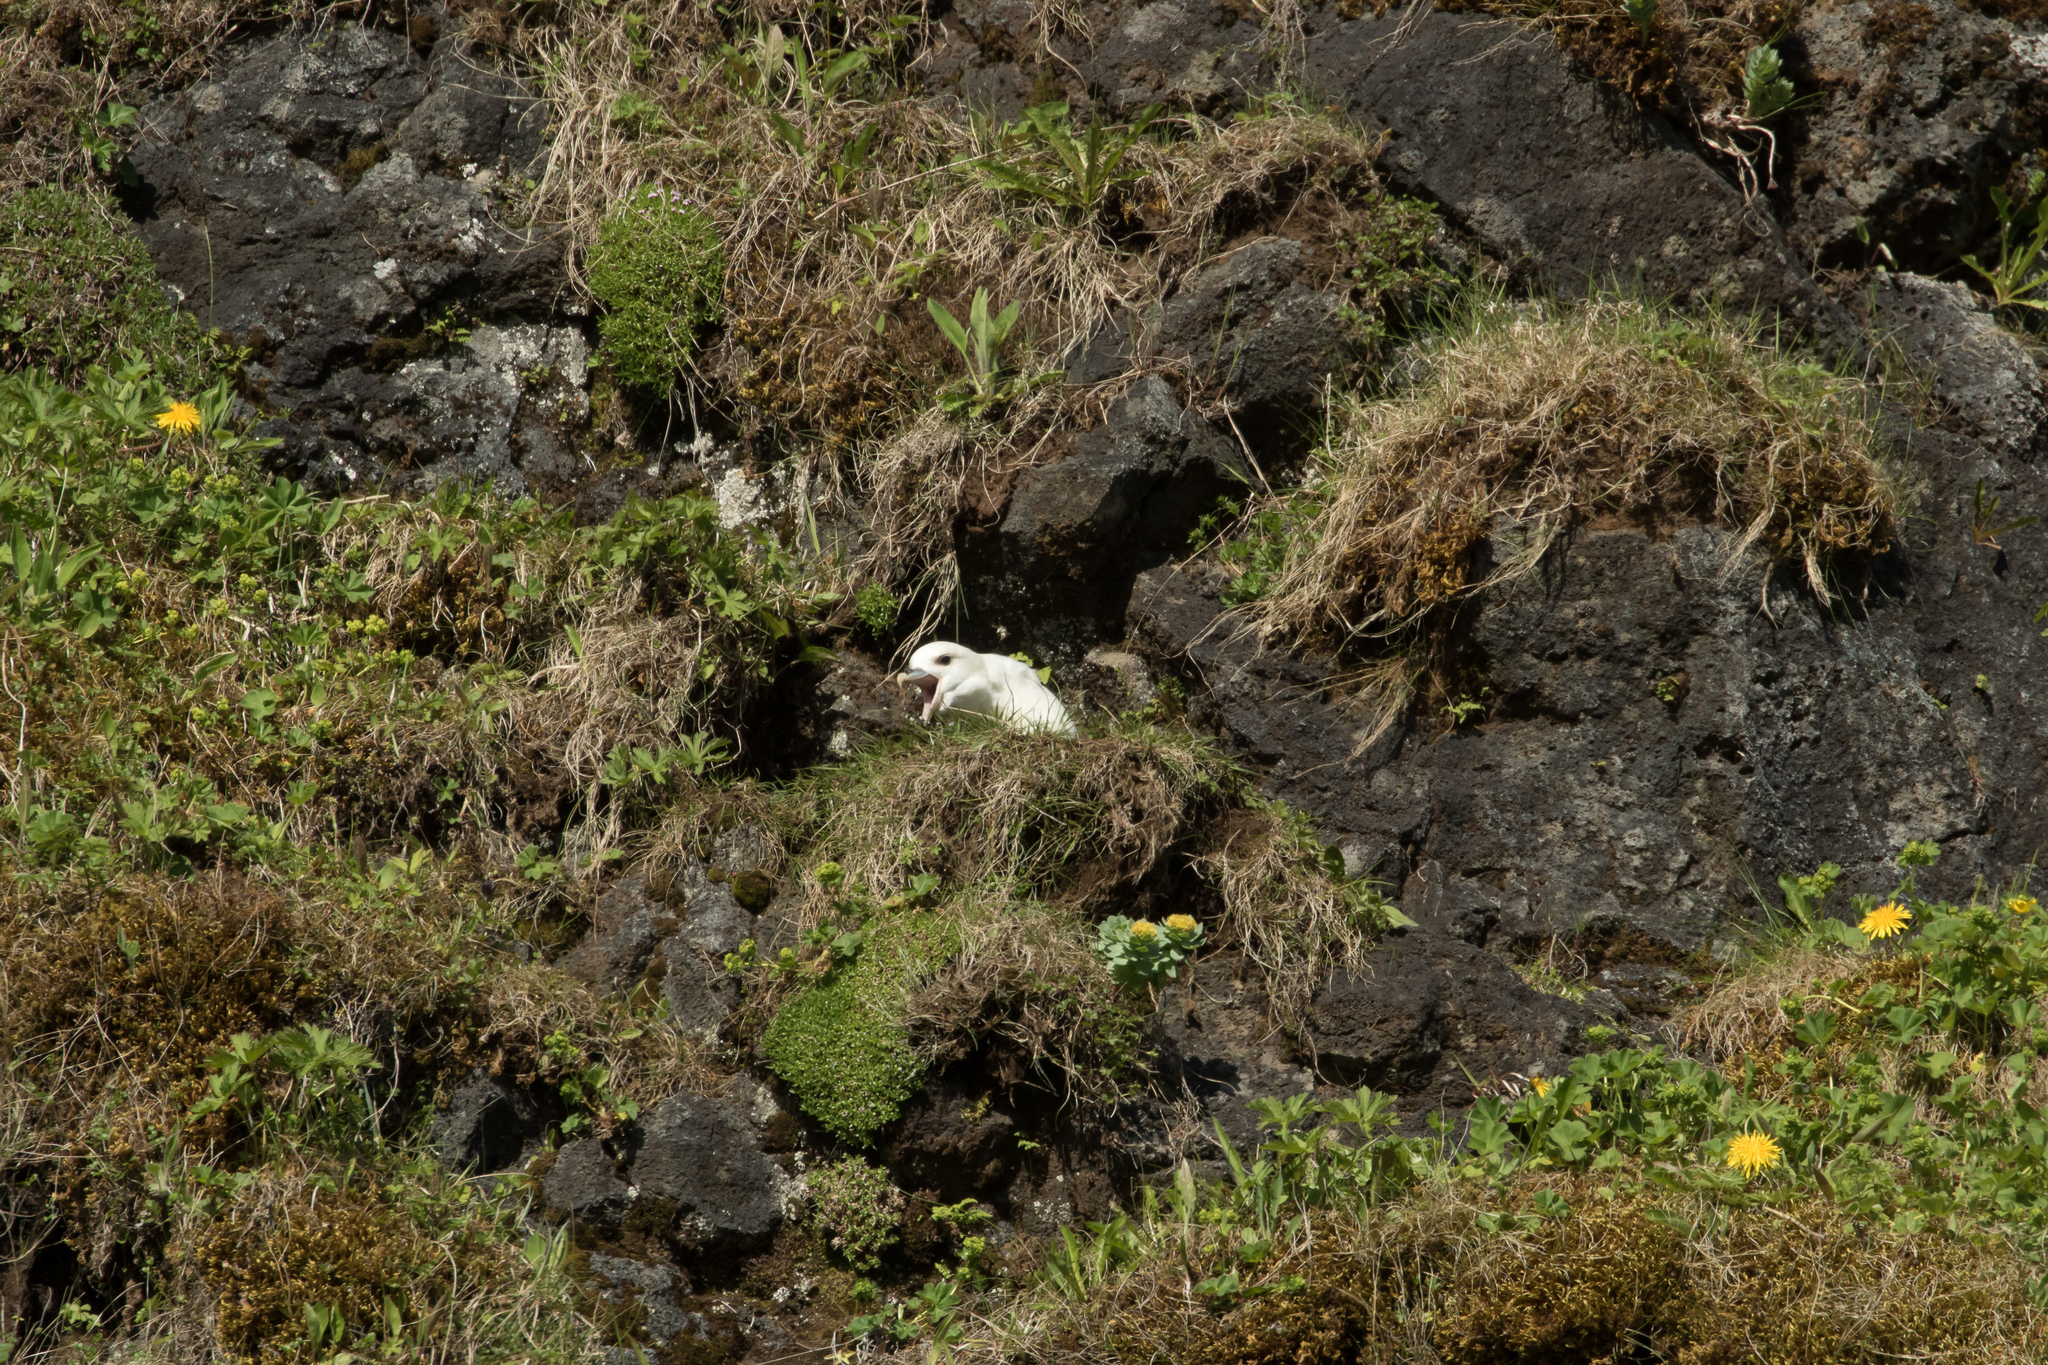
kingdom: Animalia
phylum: Chordata
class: Aves
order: Procellariiformes
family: Procellariidae
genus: Fulmarus
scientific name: Fulmarus glacialis
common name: Northern fulmar
